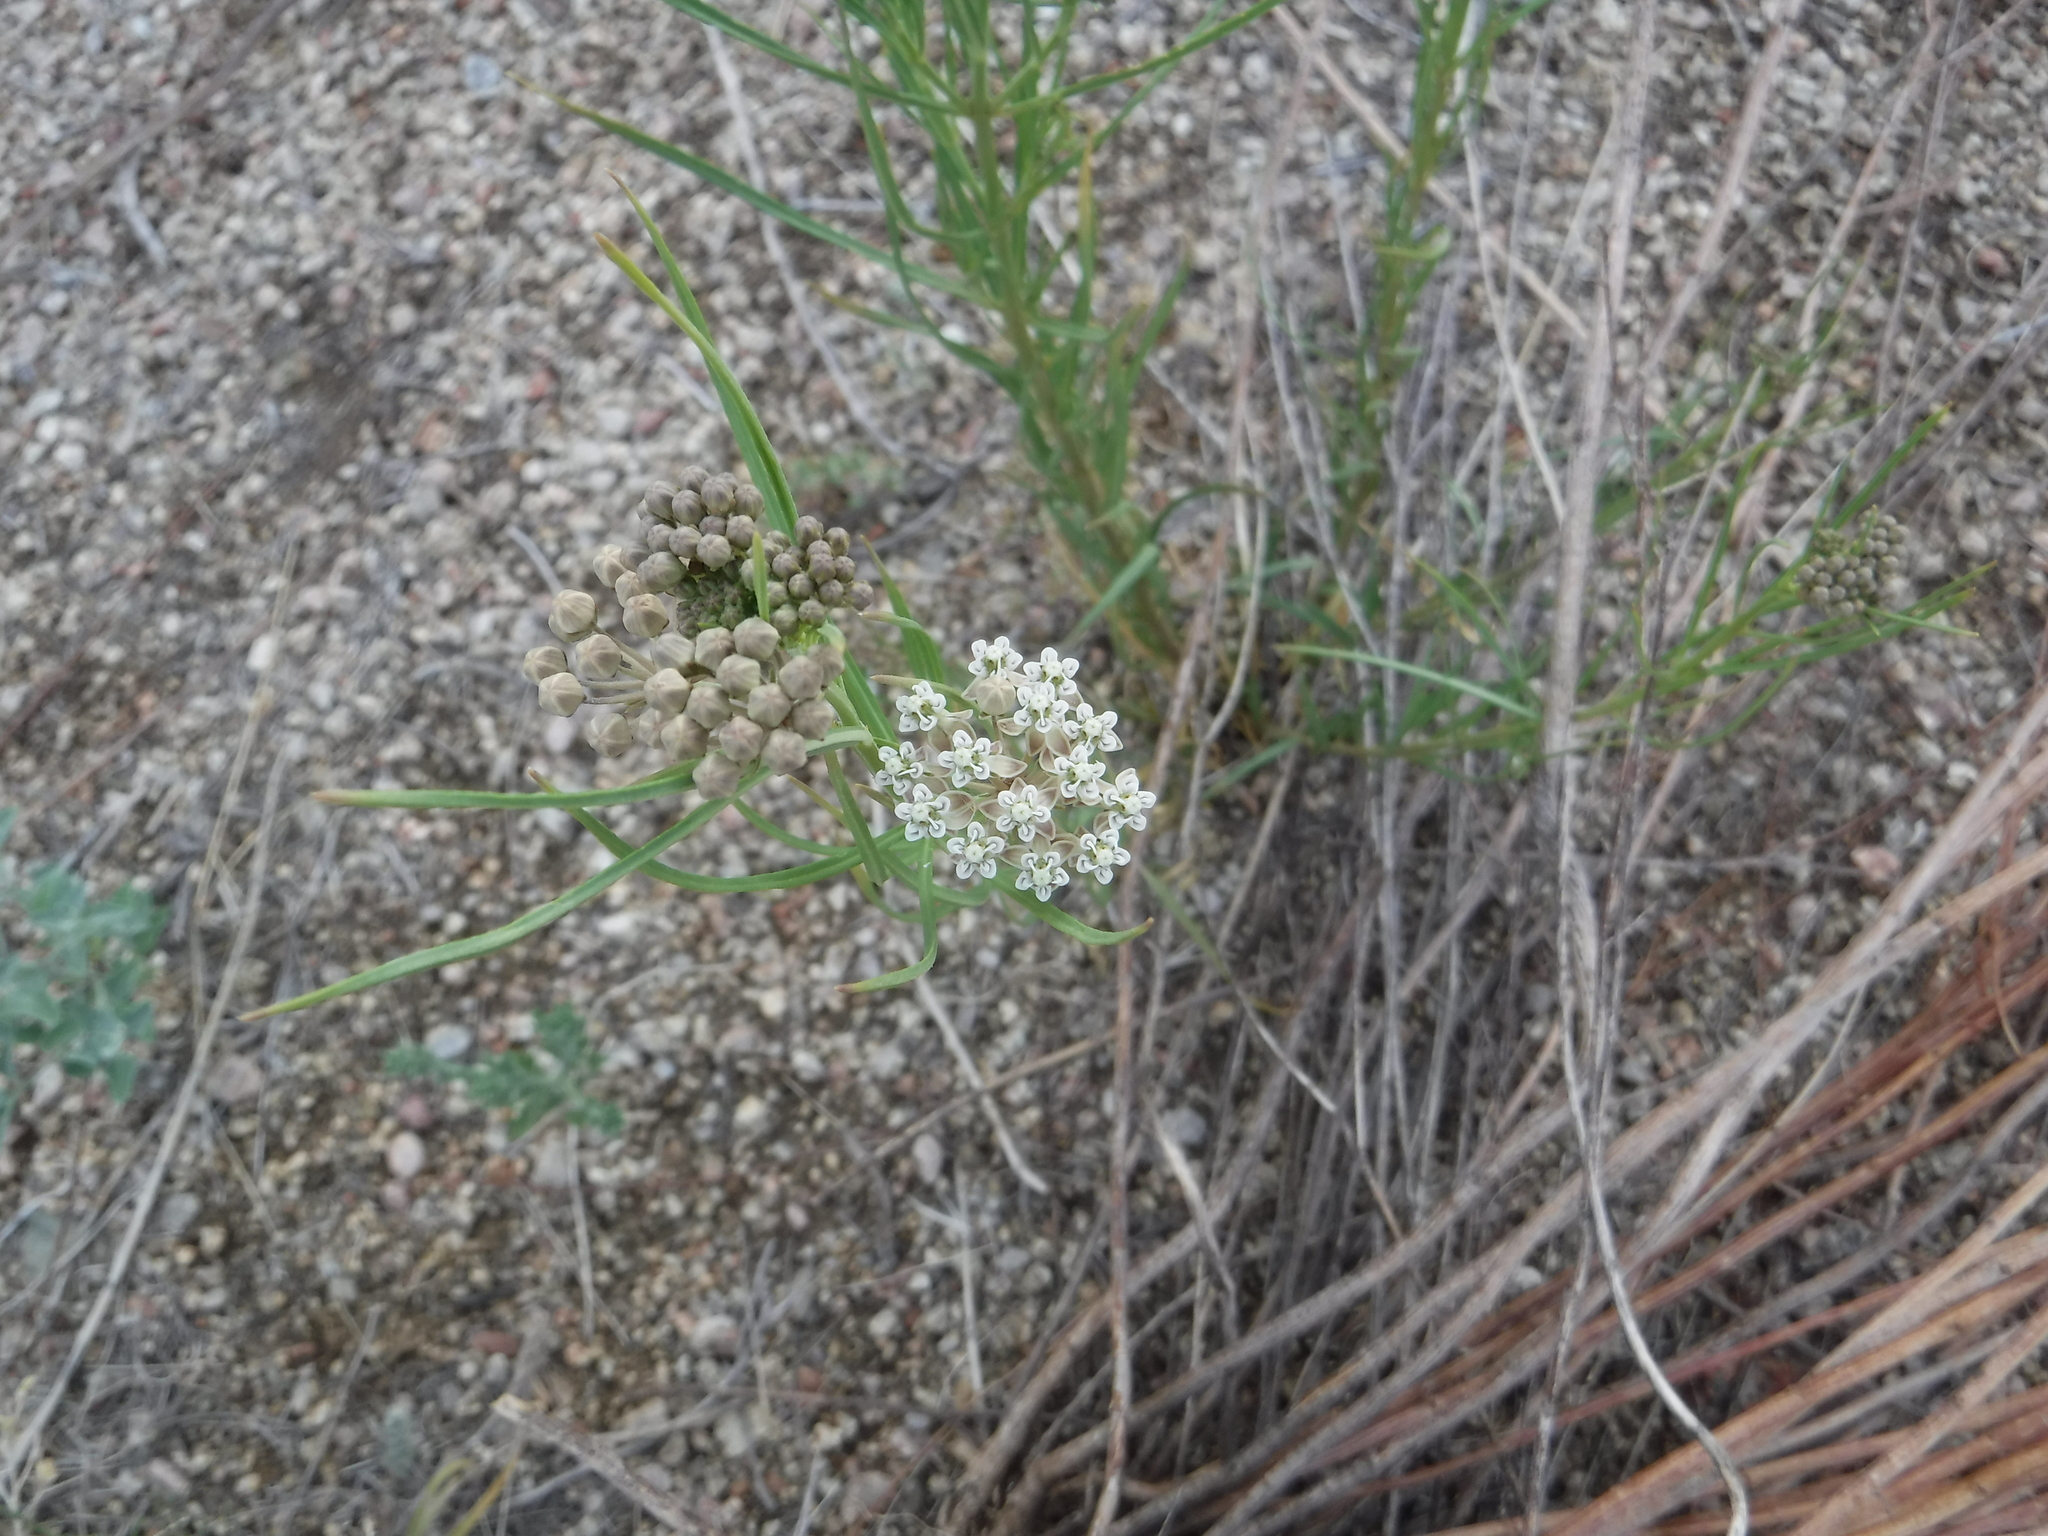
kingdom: Plantae
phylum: Tracheophyta
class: Magnoliopsida
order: Gentianales
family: Apocynaceae
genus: Asclepias
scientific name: Asclepias subverticillata
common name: Horsetail milkweed
